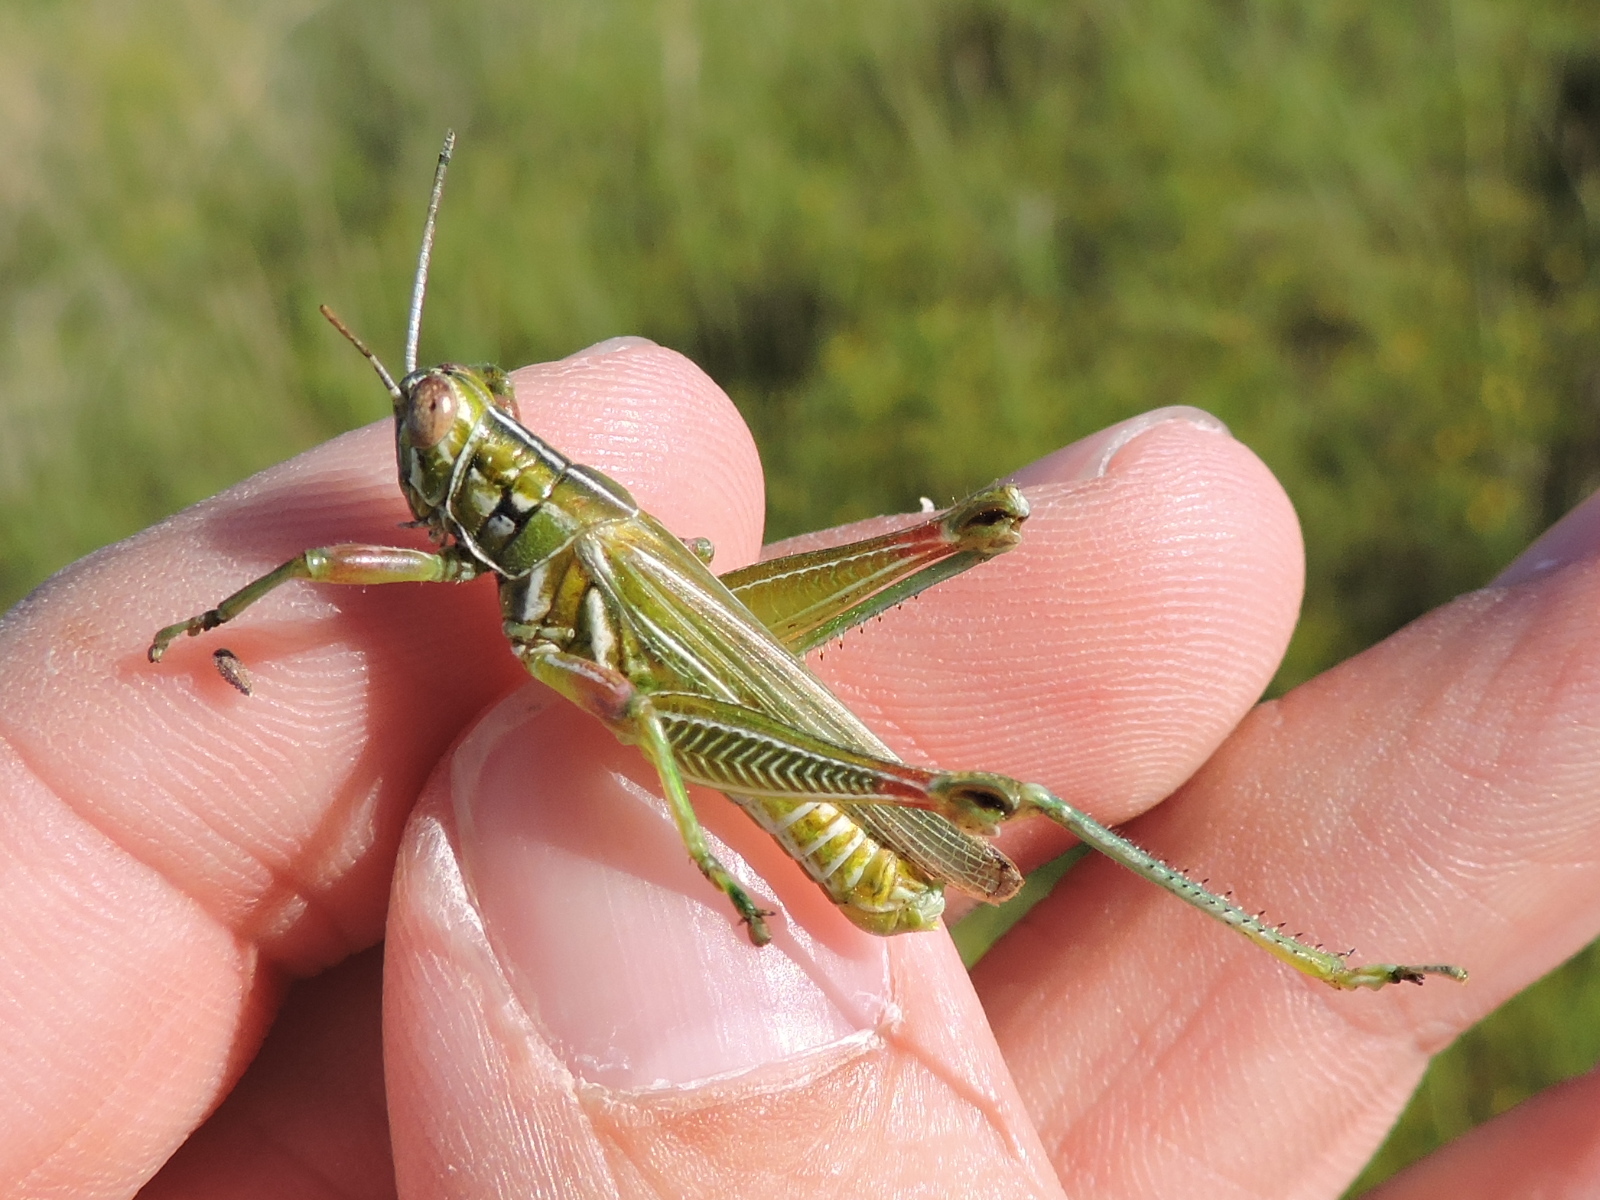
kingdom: Animalia
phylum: Arthropoda
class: Insecta
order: Orthoptera
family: Acrididae
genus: Hesperotettix
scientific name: Hesperotettix viridis
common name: Meadow purple-striped grasshopper
